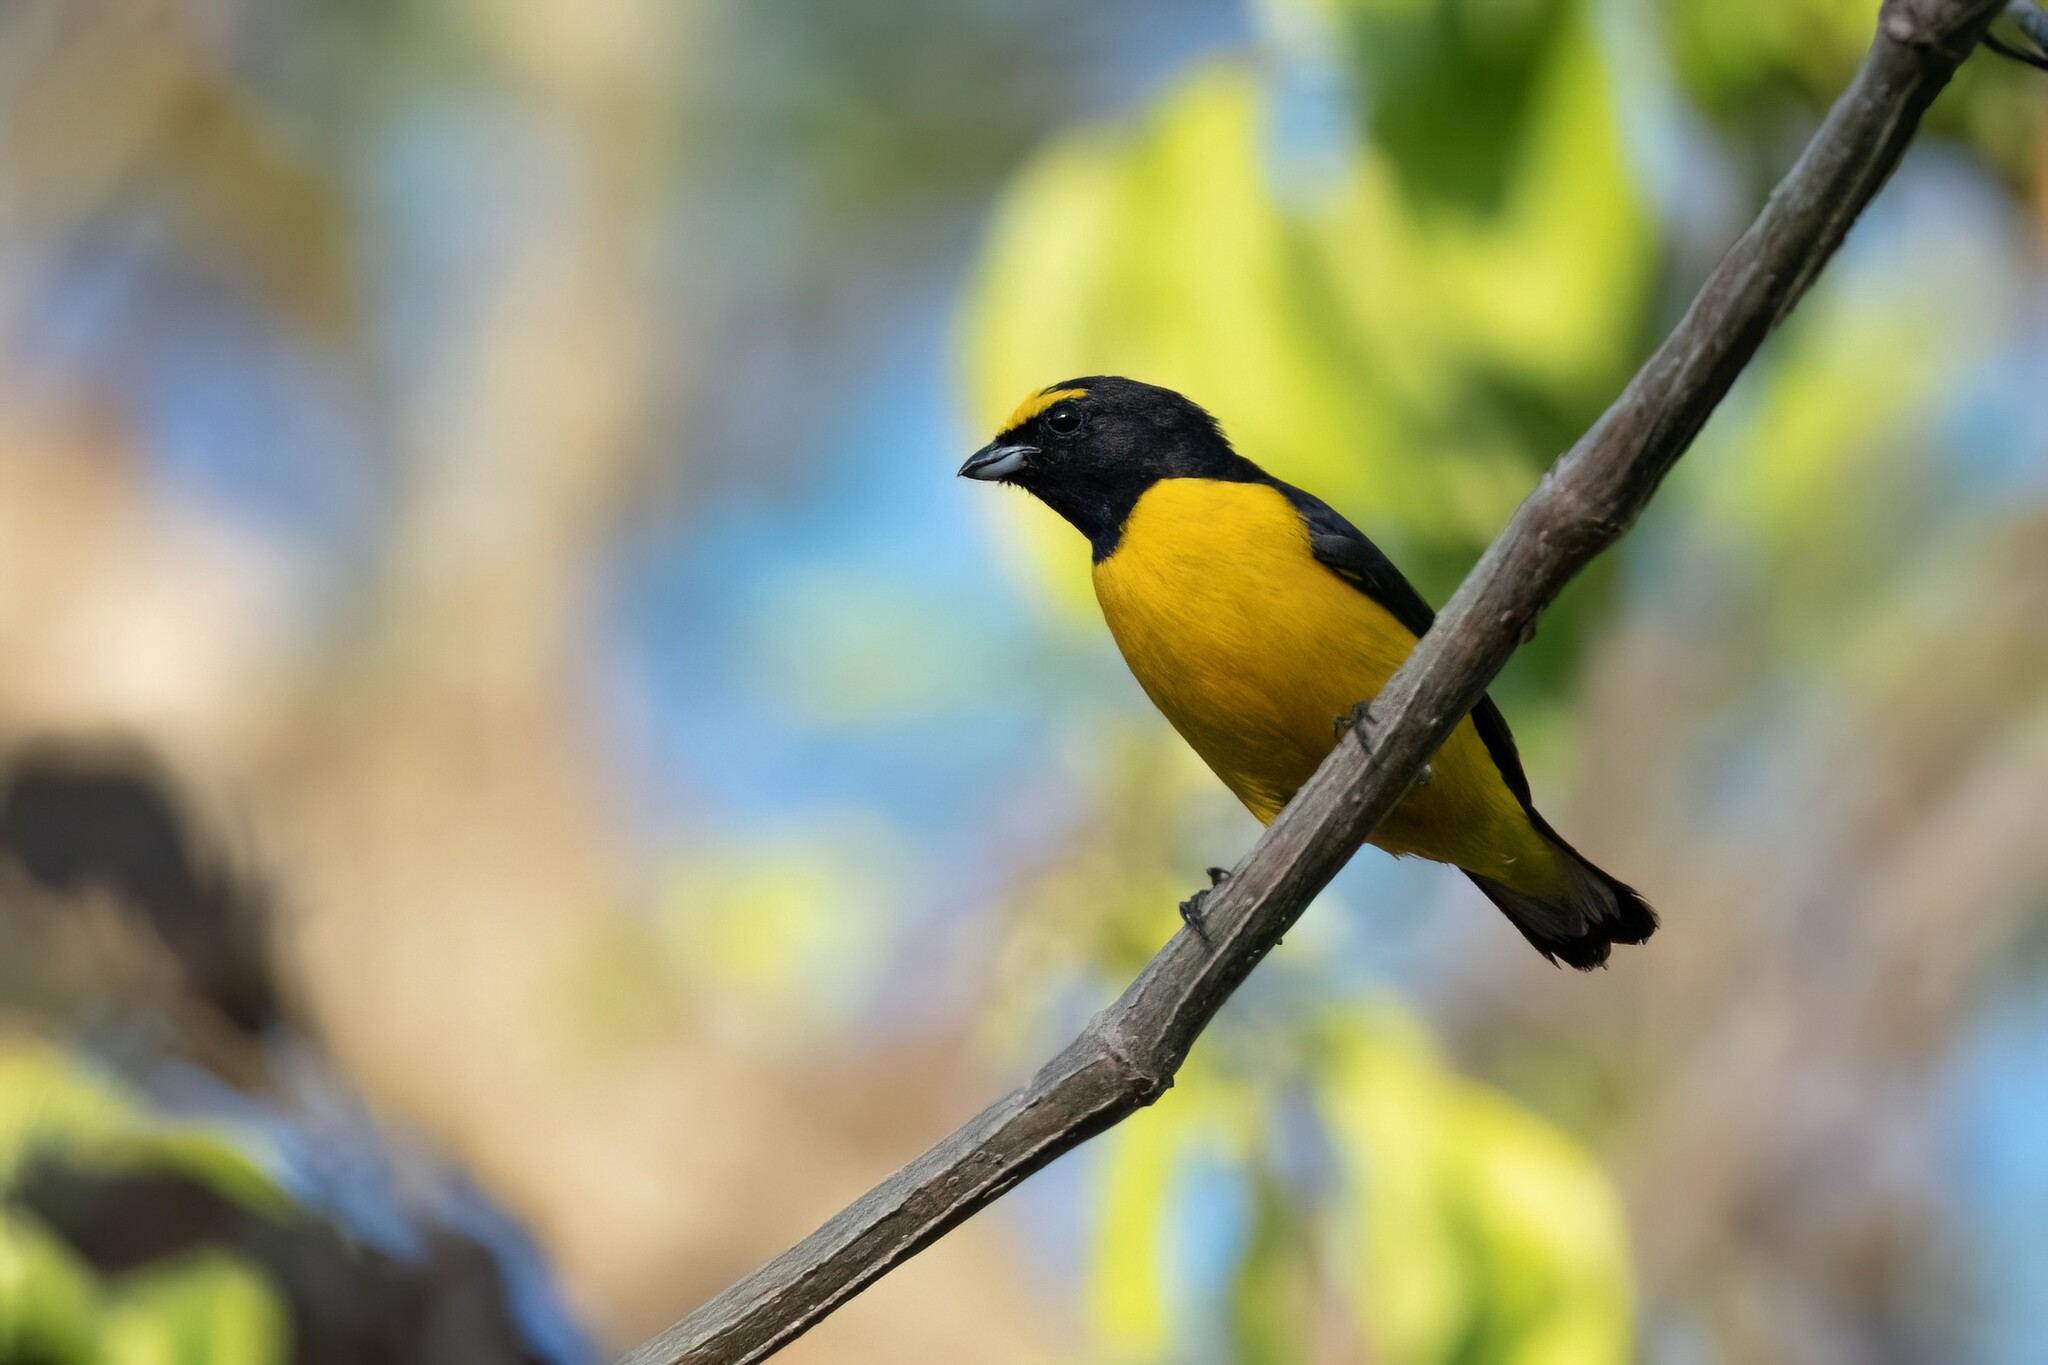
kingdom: Animalia
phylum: Chordata
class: Aves
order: Passeriformes
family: Fringillidae
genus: Euphonia
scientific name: Euphonia affinis
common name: Scrub euphonia
